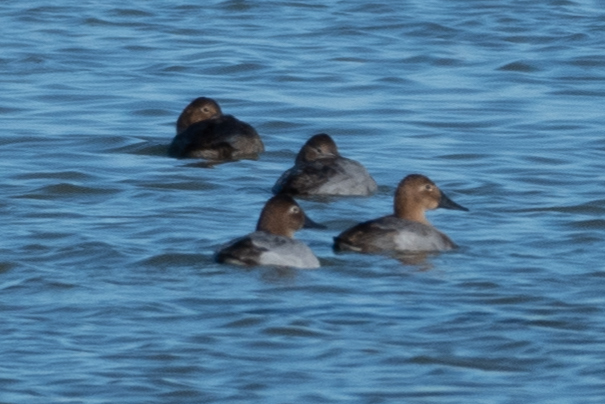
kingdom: Animalia
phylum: Chordata
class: Aves
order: Anseriformes
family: Anatidae
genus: Aythya
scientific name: Aythya valisineria
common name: Canvasback
